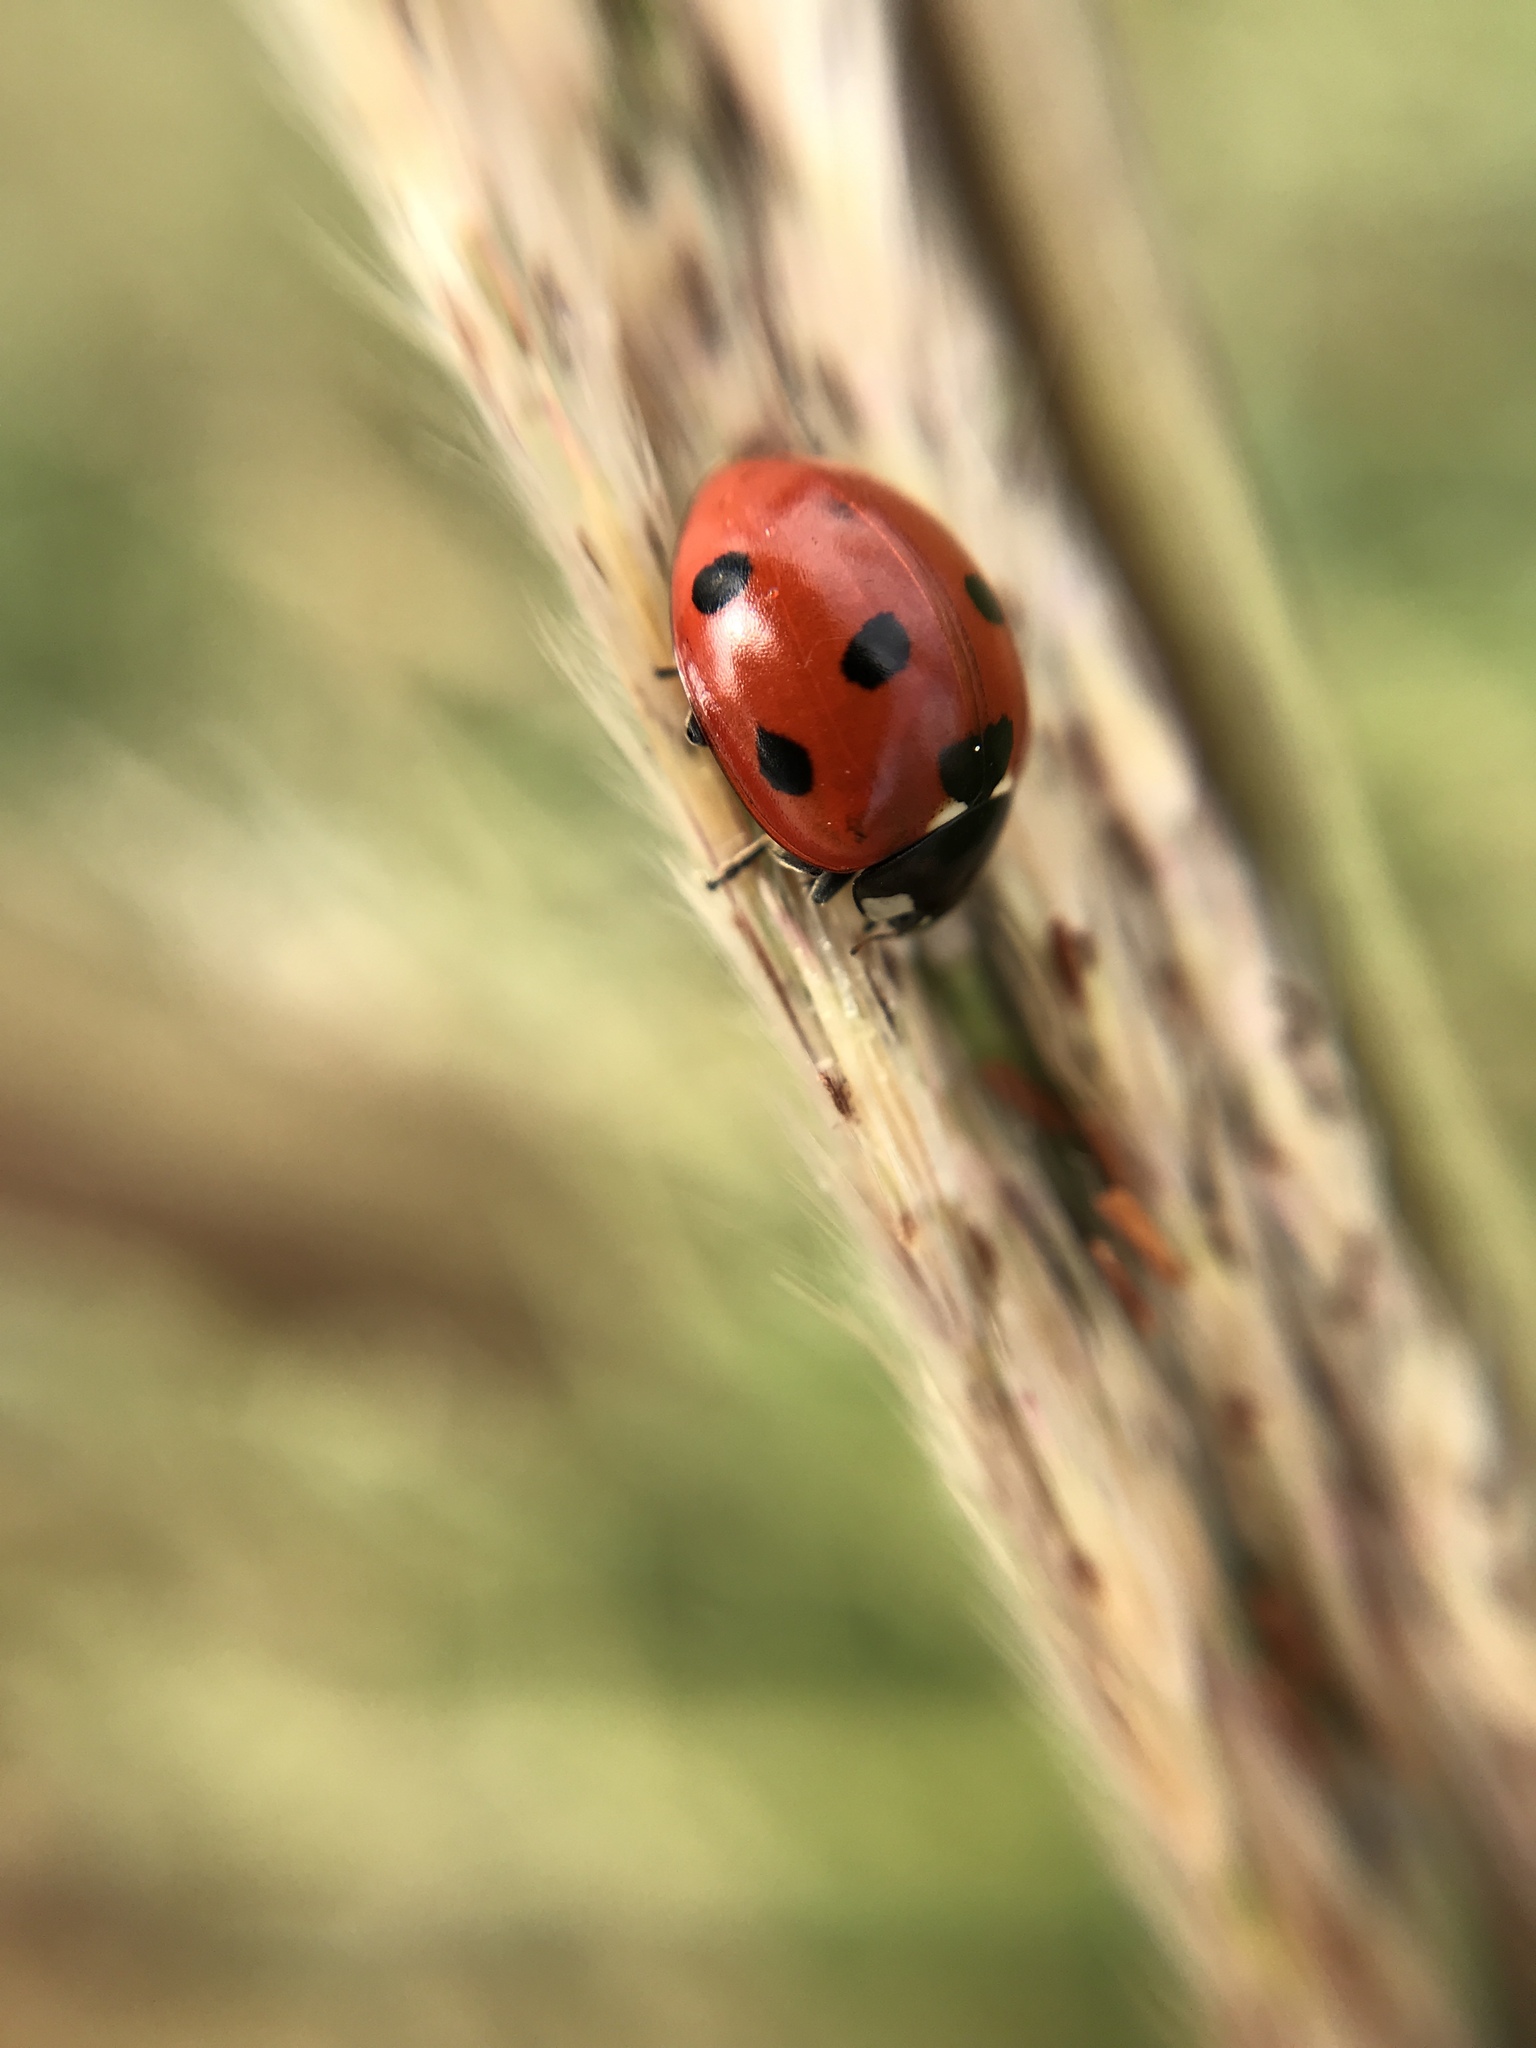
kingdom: Animalia
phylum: Arthropoda
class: Insecta
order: Coleoptera
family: Coccinellidae
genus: Coccinella
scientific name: Coccinella septempunctata
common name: Sevenspotted lady beetle
